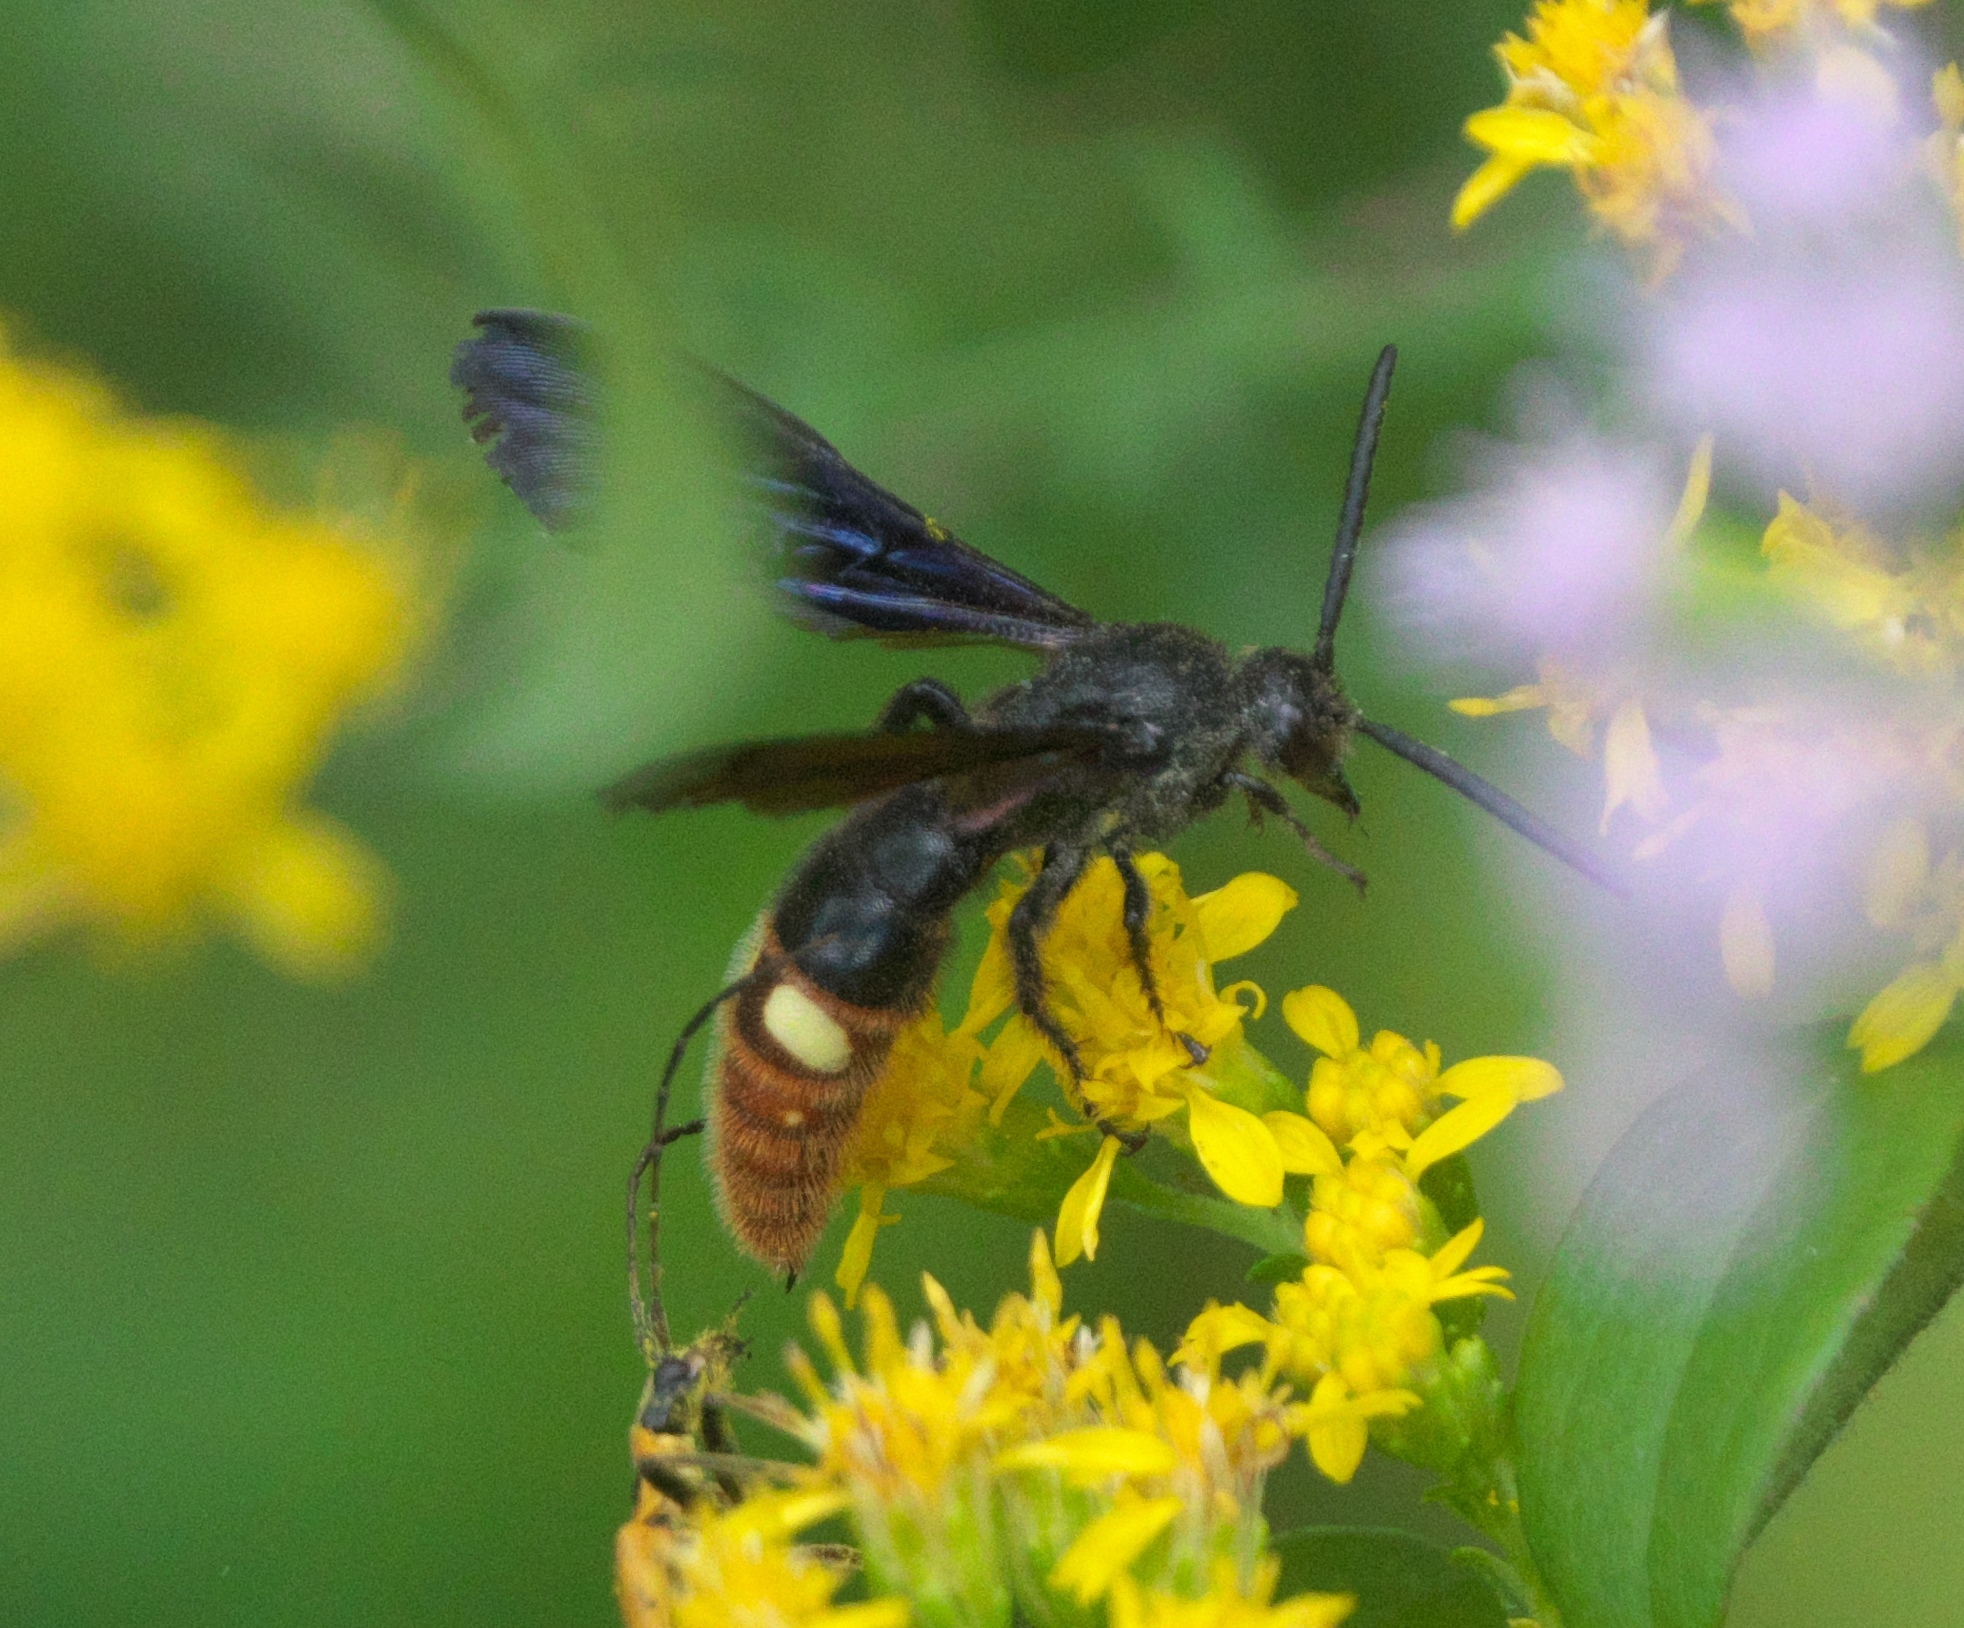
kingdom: Animalia
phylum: Arthropoda
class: Insecta
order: Hymenoptera
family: Scoliidae
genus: Scolia
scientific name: Scolia dubia
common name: Blue-winged scoliid wasp
